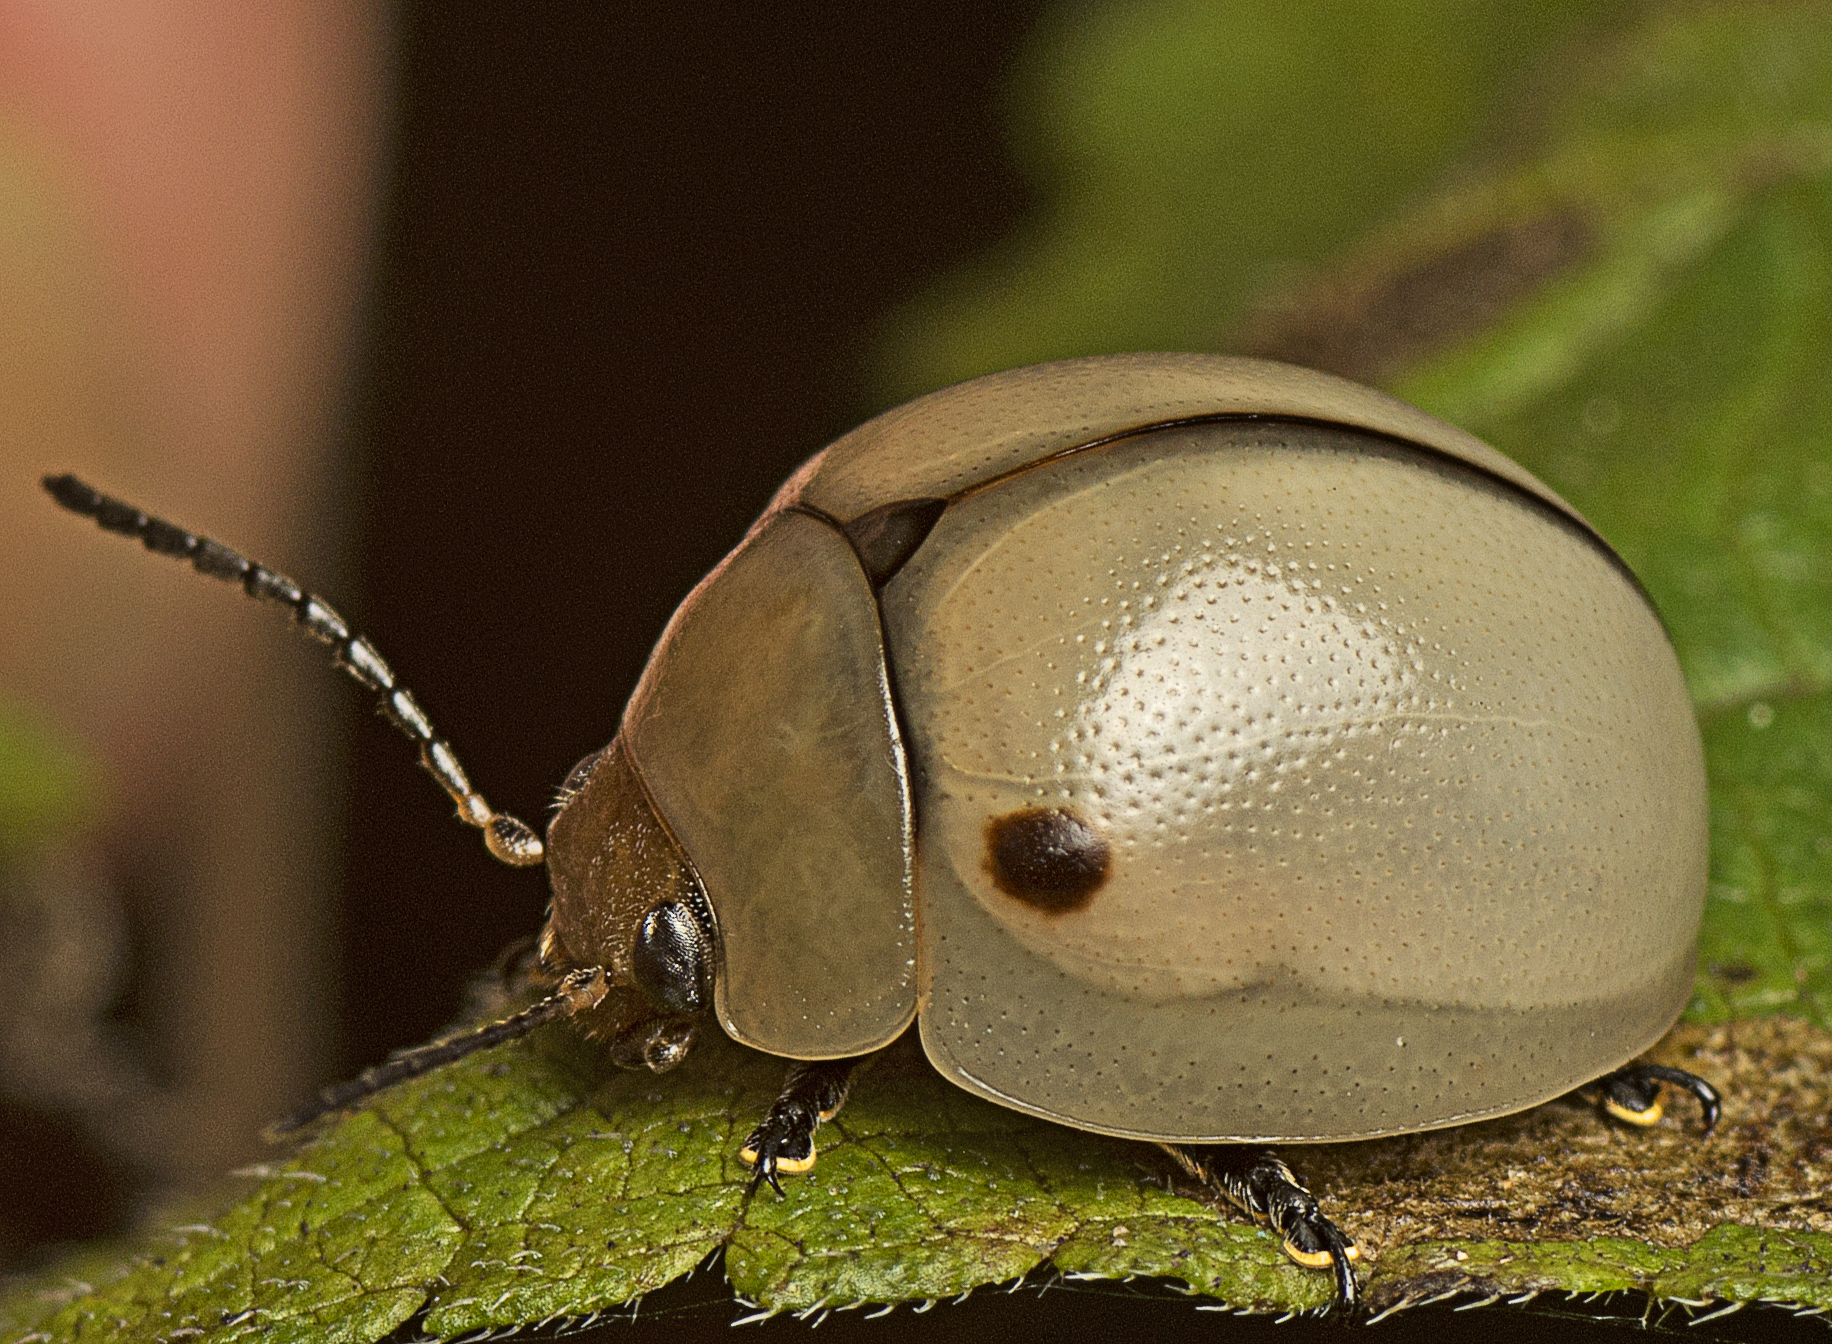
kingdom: Animalia
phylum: Arthropoda
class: Insecta
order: Coleoptera
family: Chrysomelidae
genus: Dicranosterna
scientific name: Dicranosterna
